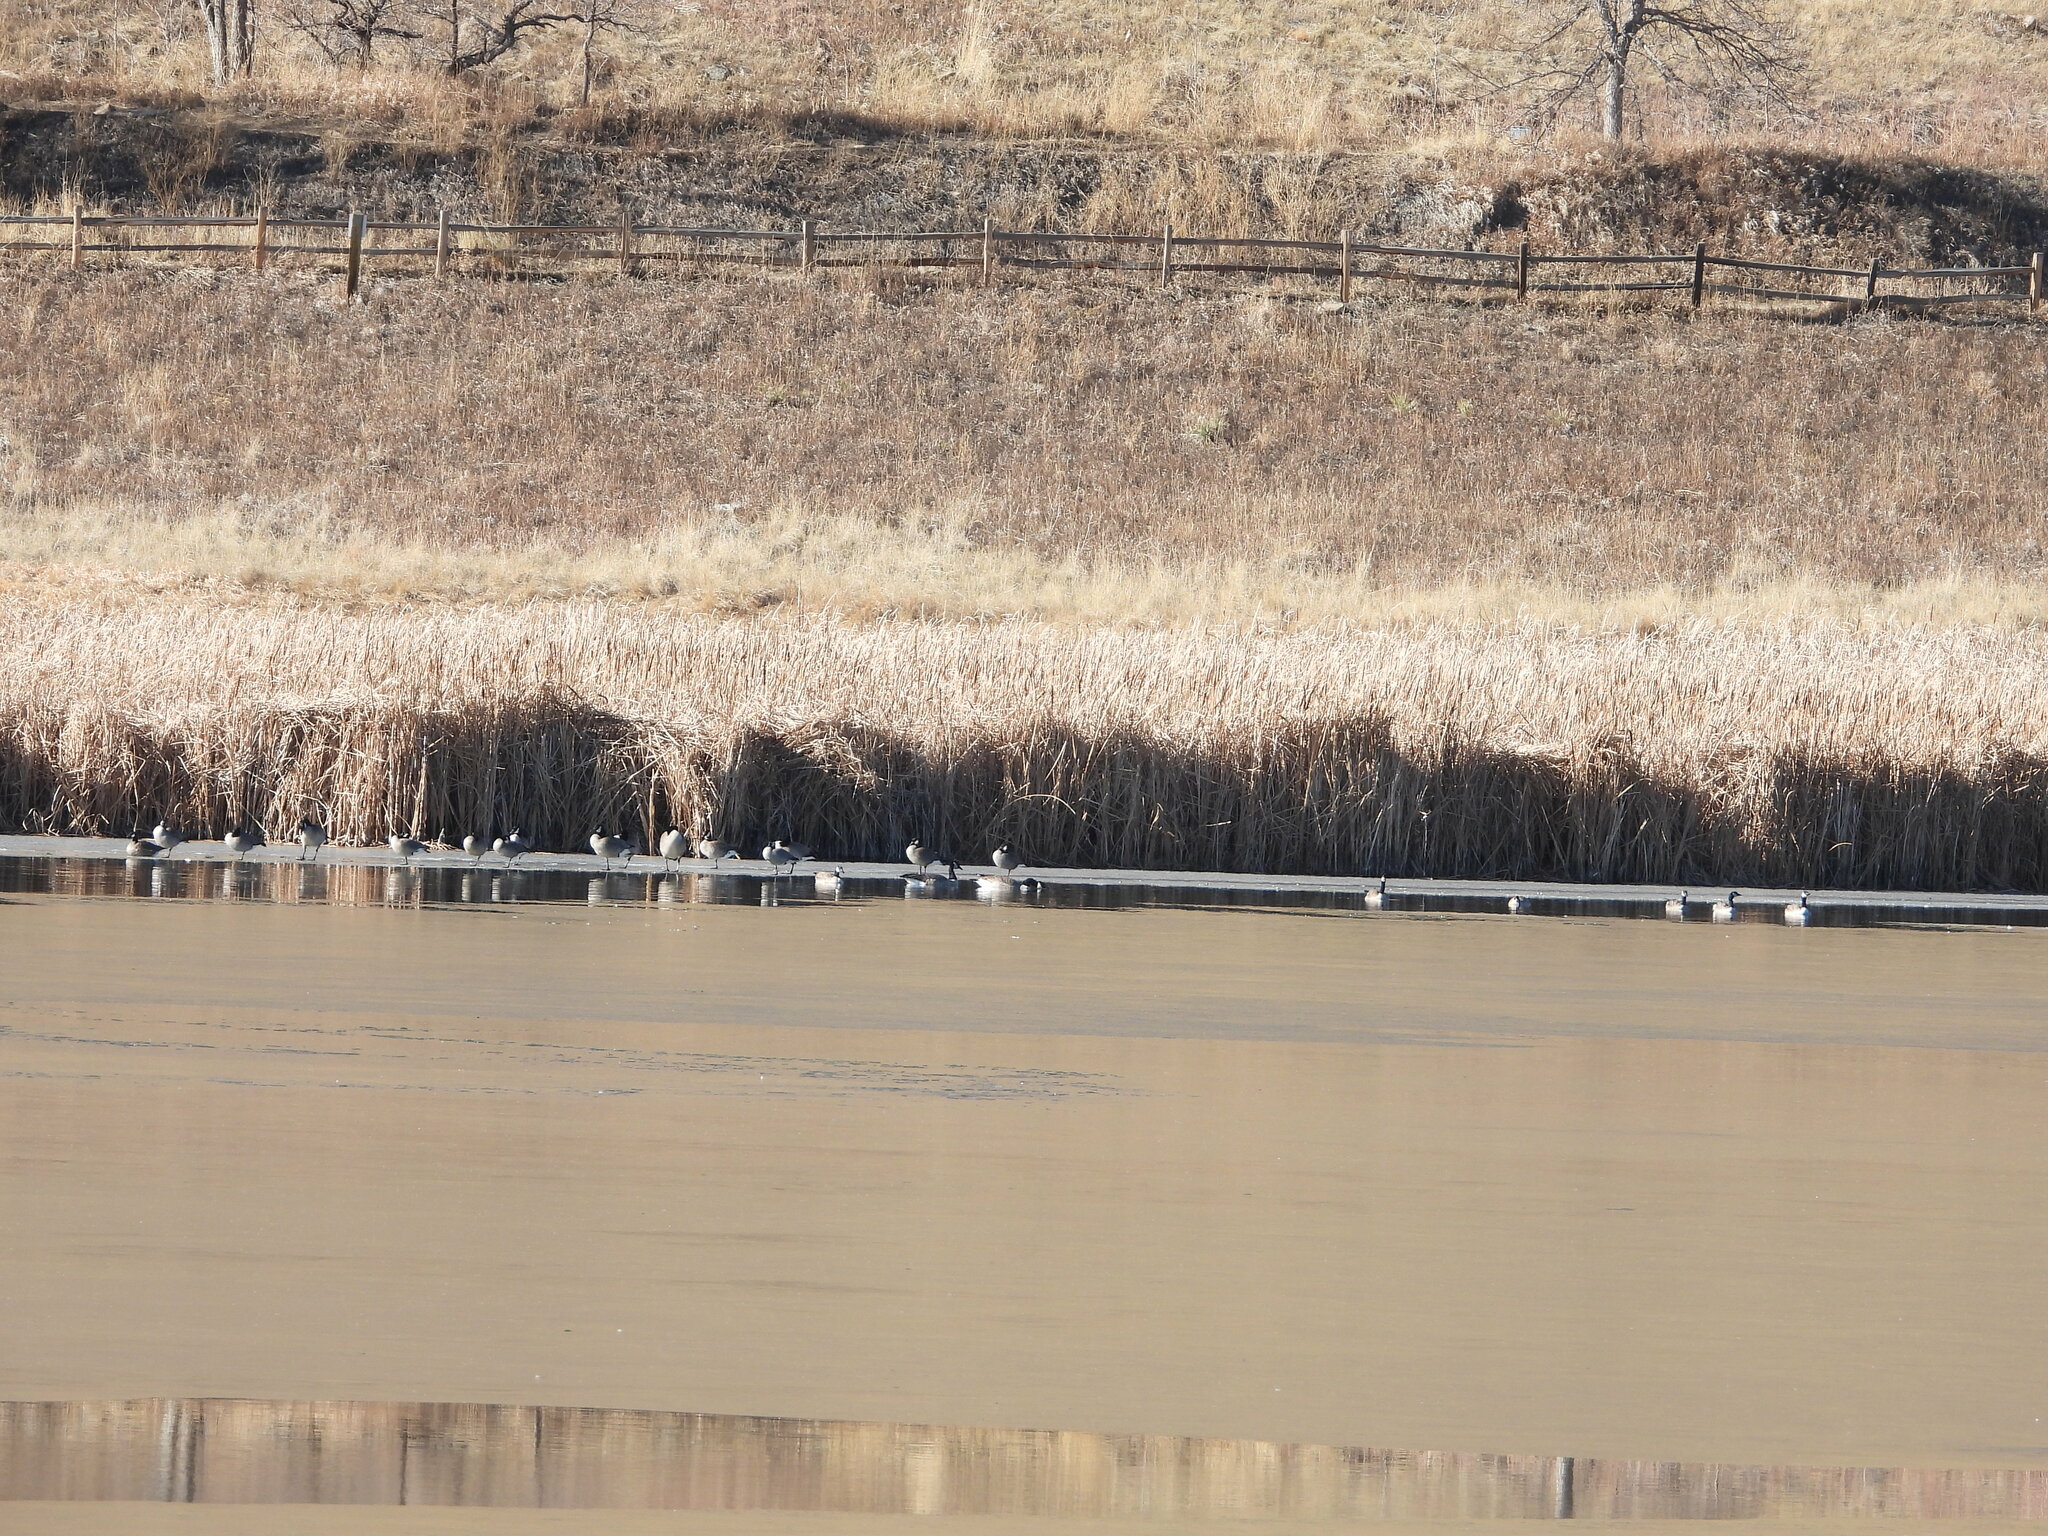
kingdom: Animalia
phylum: Chordata
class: Aves
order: Anseriformes
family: Anatidae
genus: Branta
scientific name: Branta canadensis
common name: Canada goose
